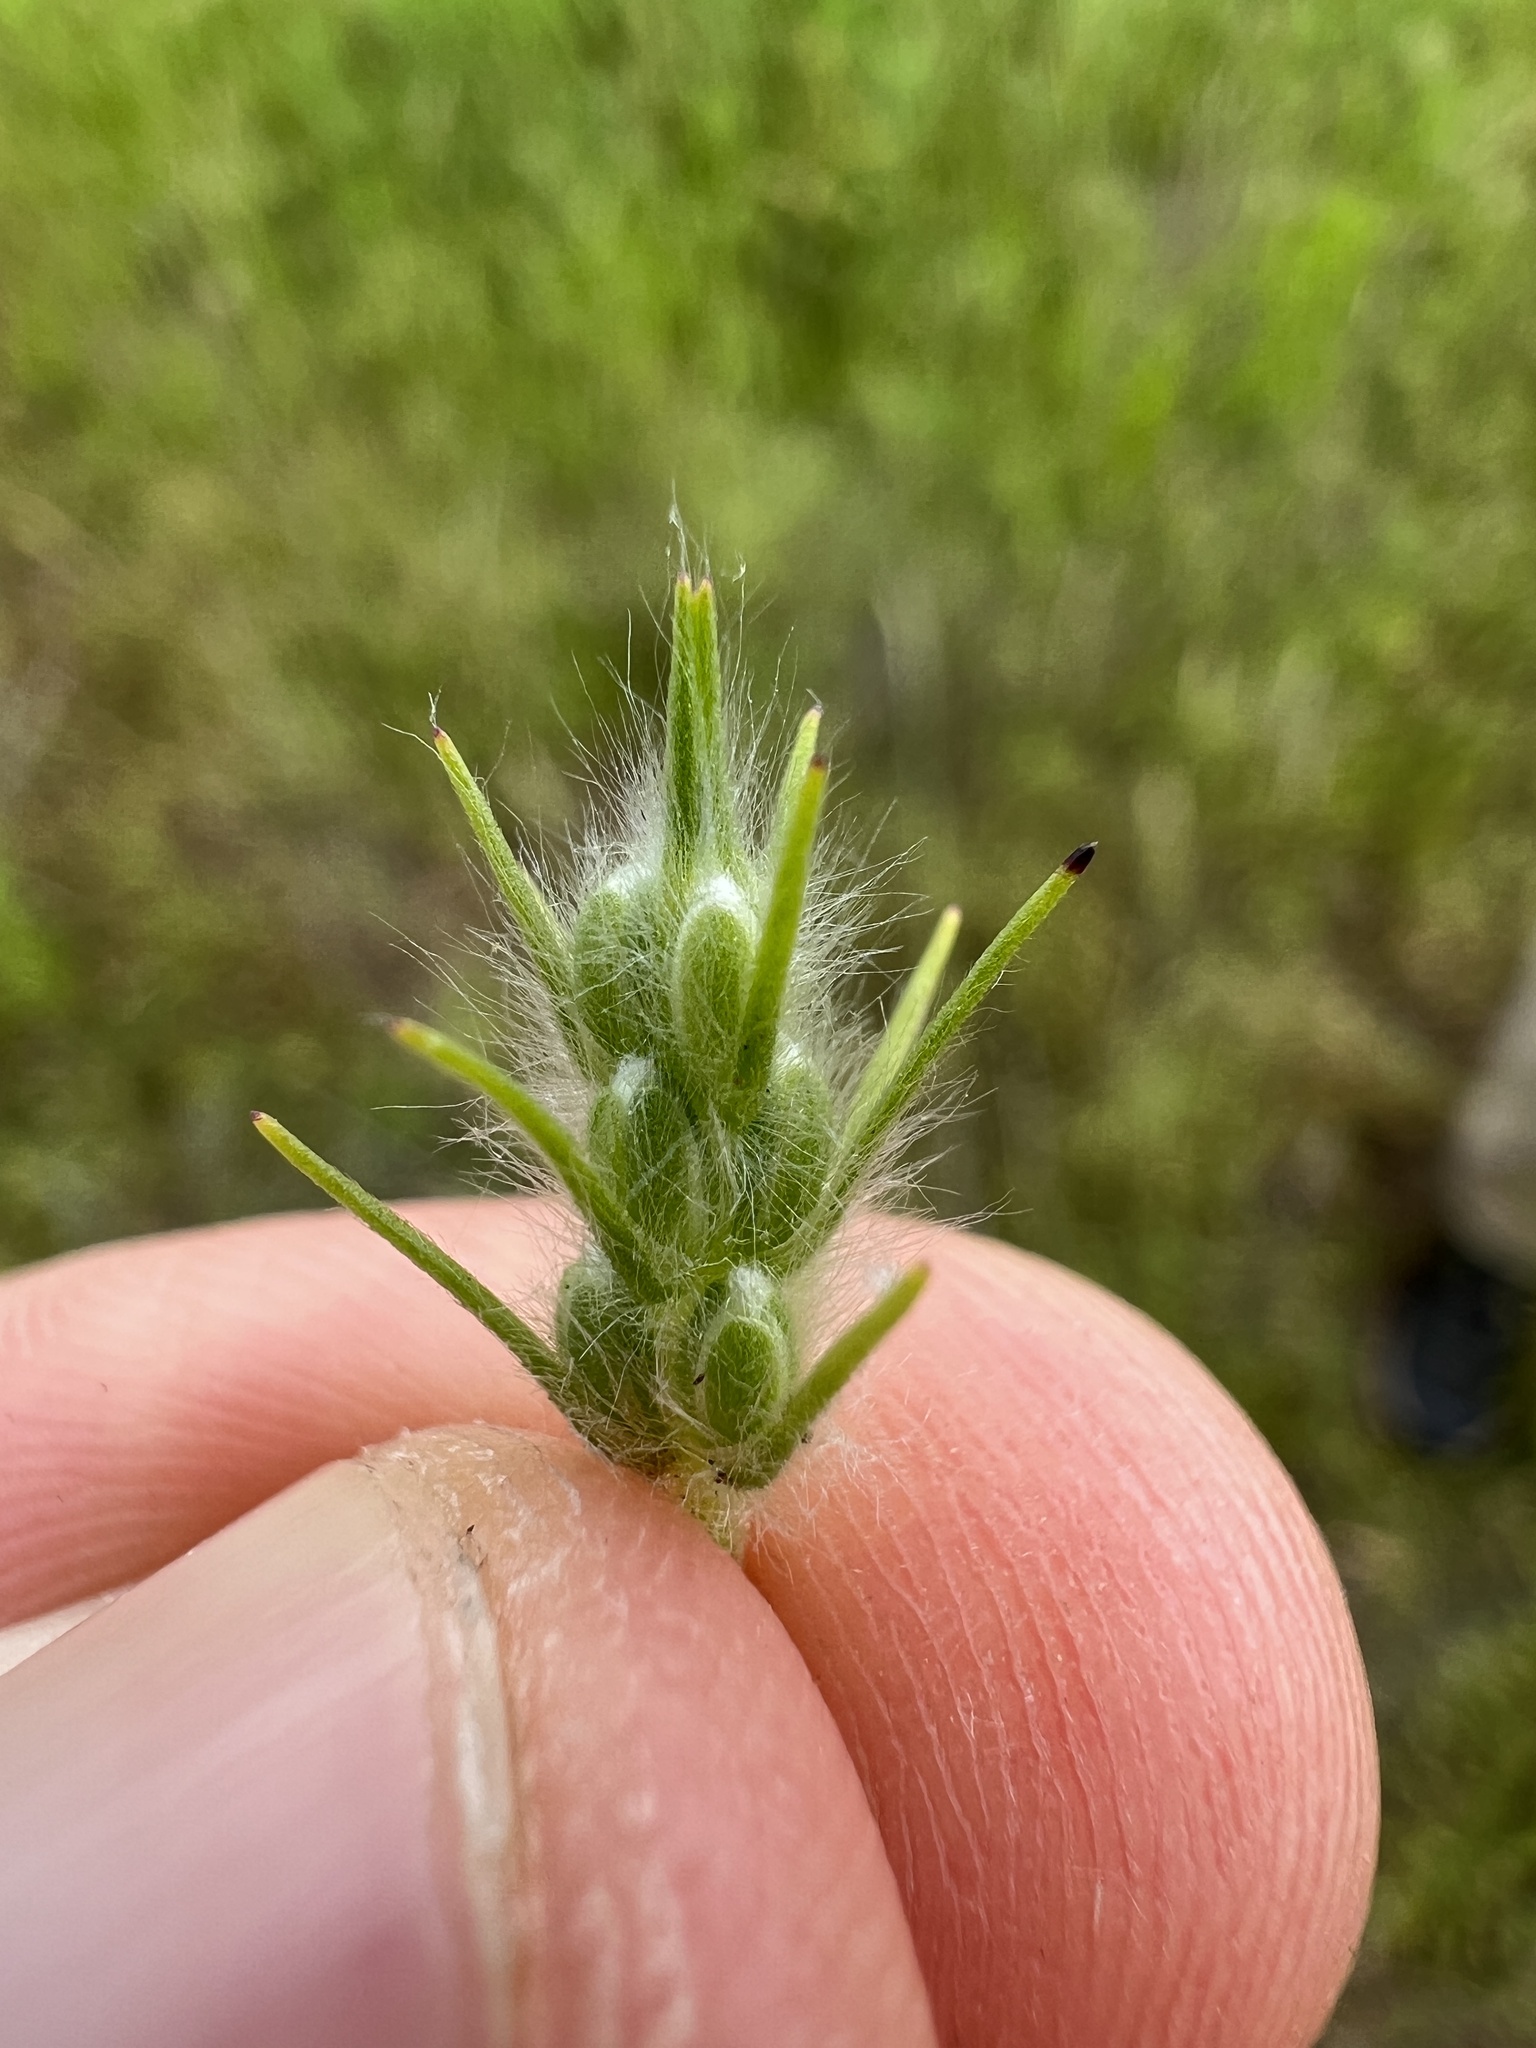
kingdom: Plantae
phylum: Tracheophyta
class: Magnoliopsida
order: Lamiales
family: Plantaginaceae
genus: Plantago
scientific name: Plantago aristata
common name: Bracted plantain
